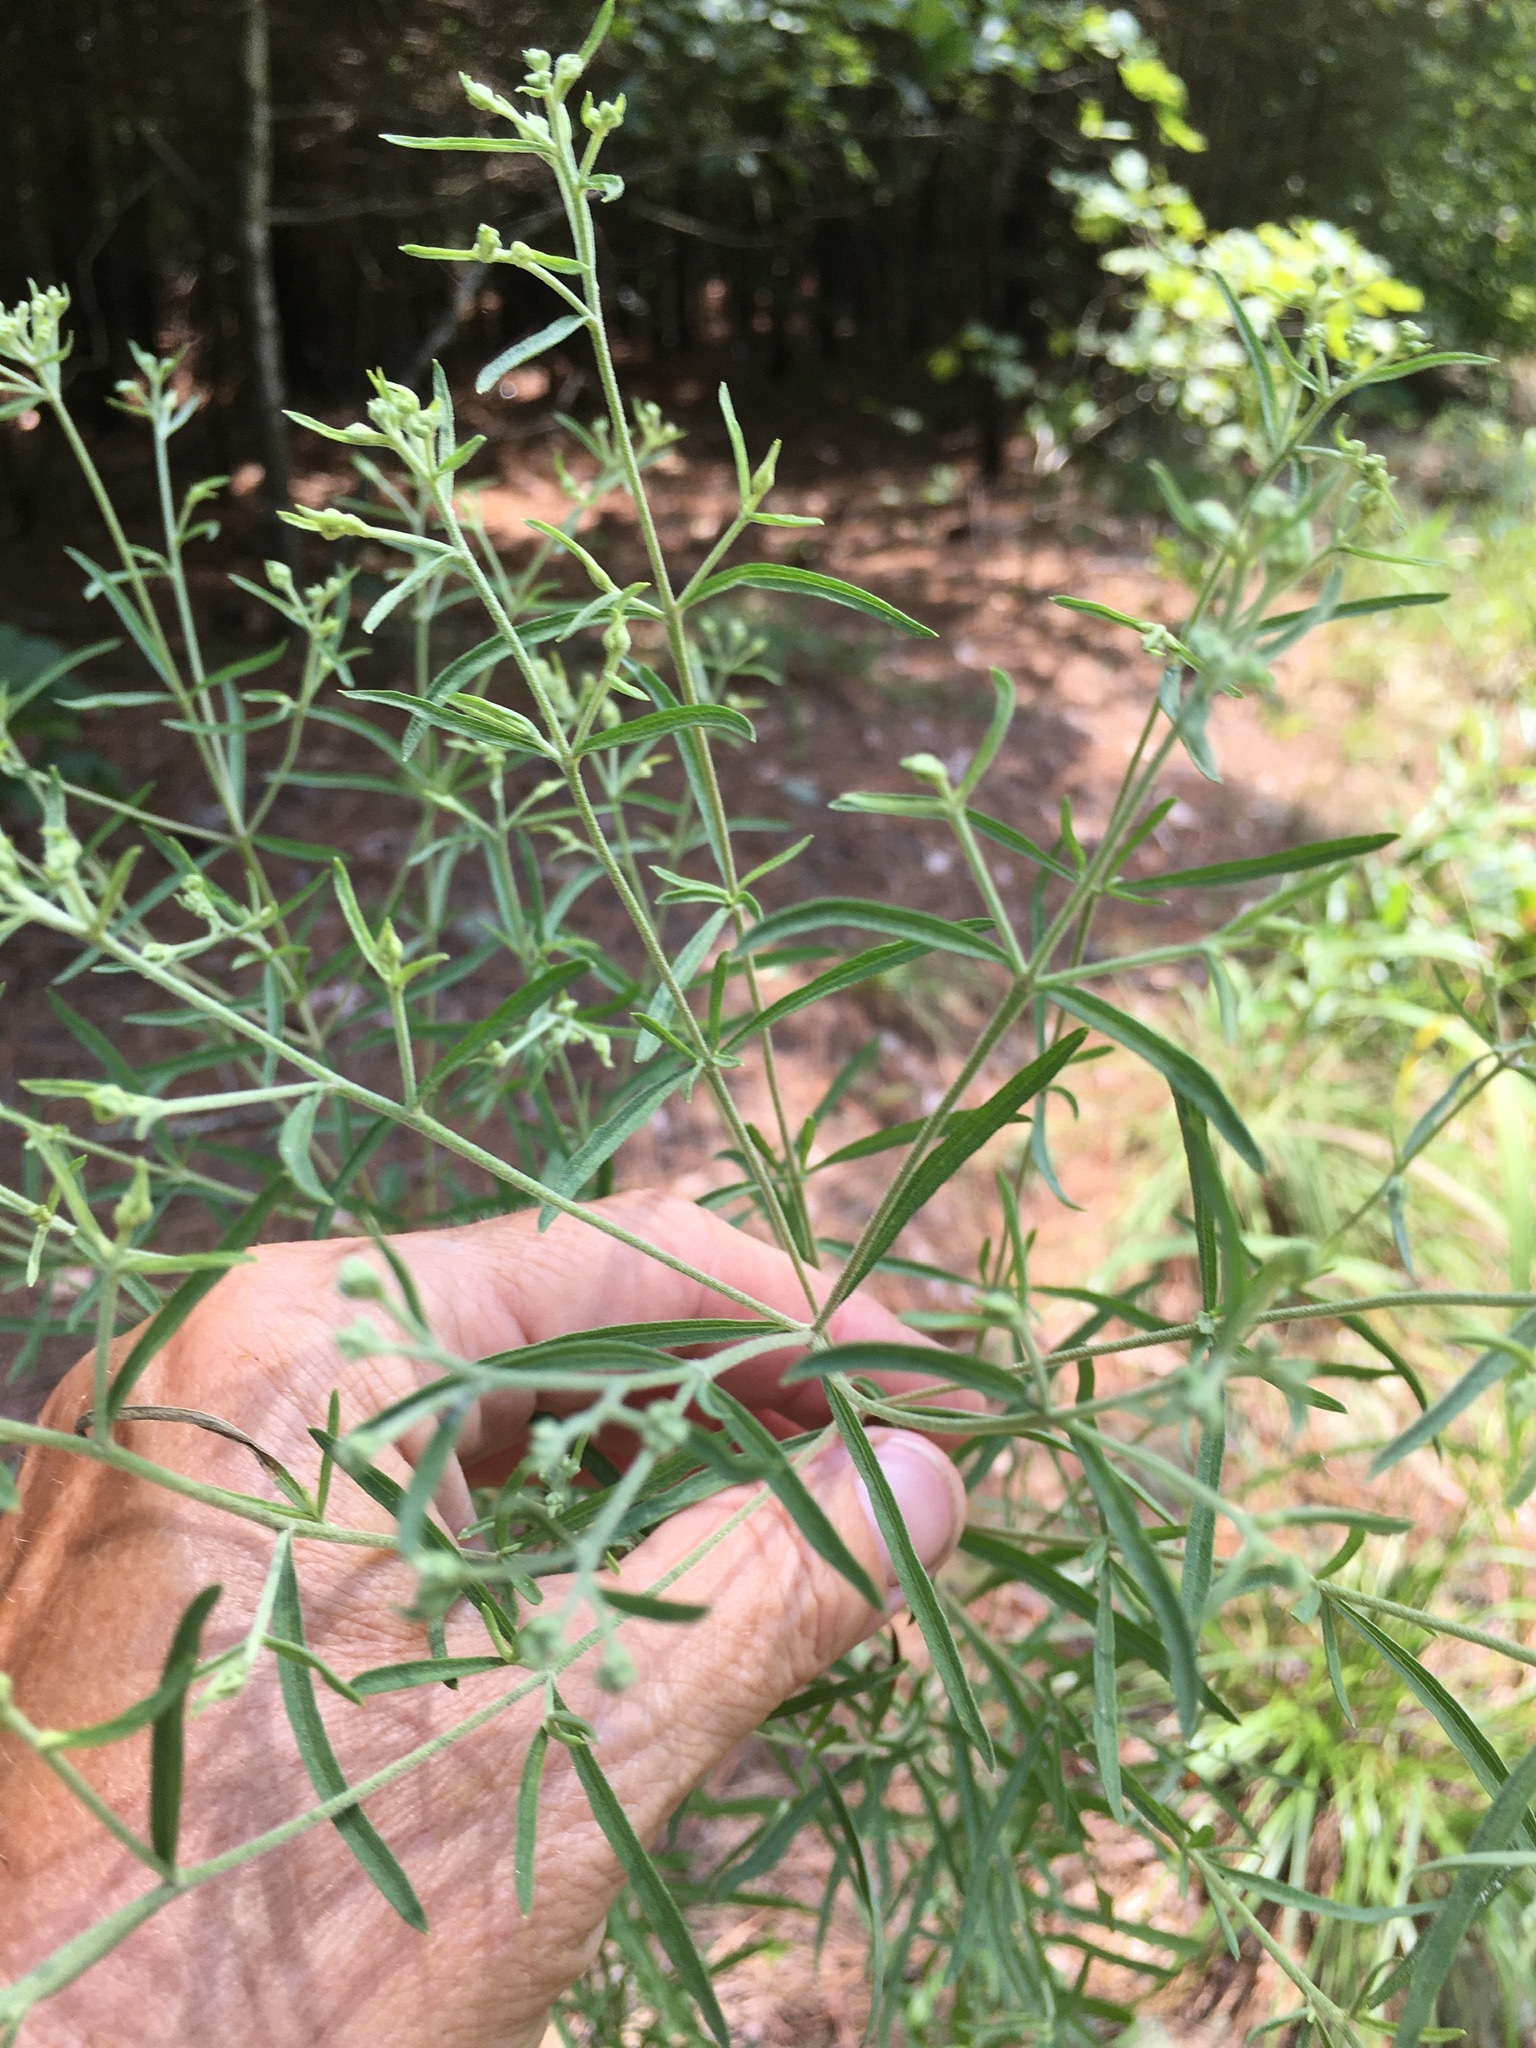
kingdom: Plantae
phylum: Tracheophyta
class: Magnoliopsida
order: Asterales
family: Asteraceae
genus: Eupatorium
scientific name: Eupatorium torreyanum
